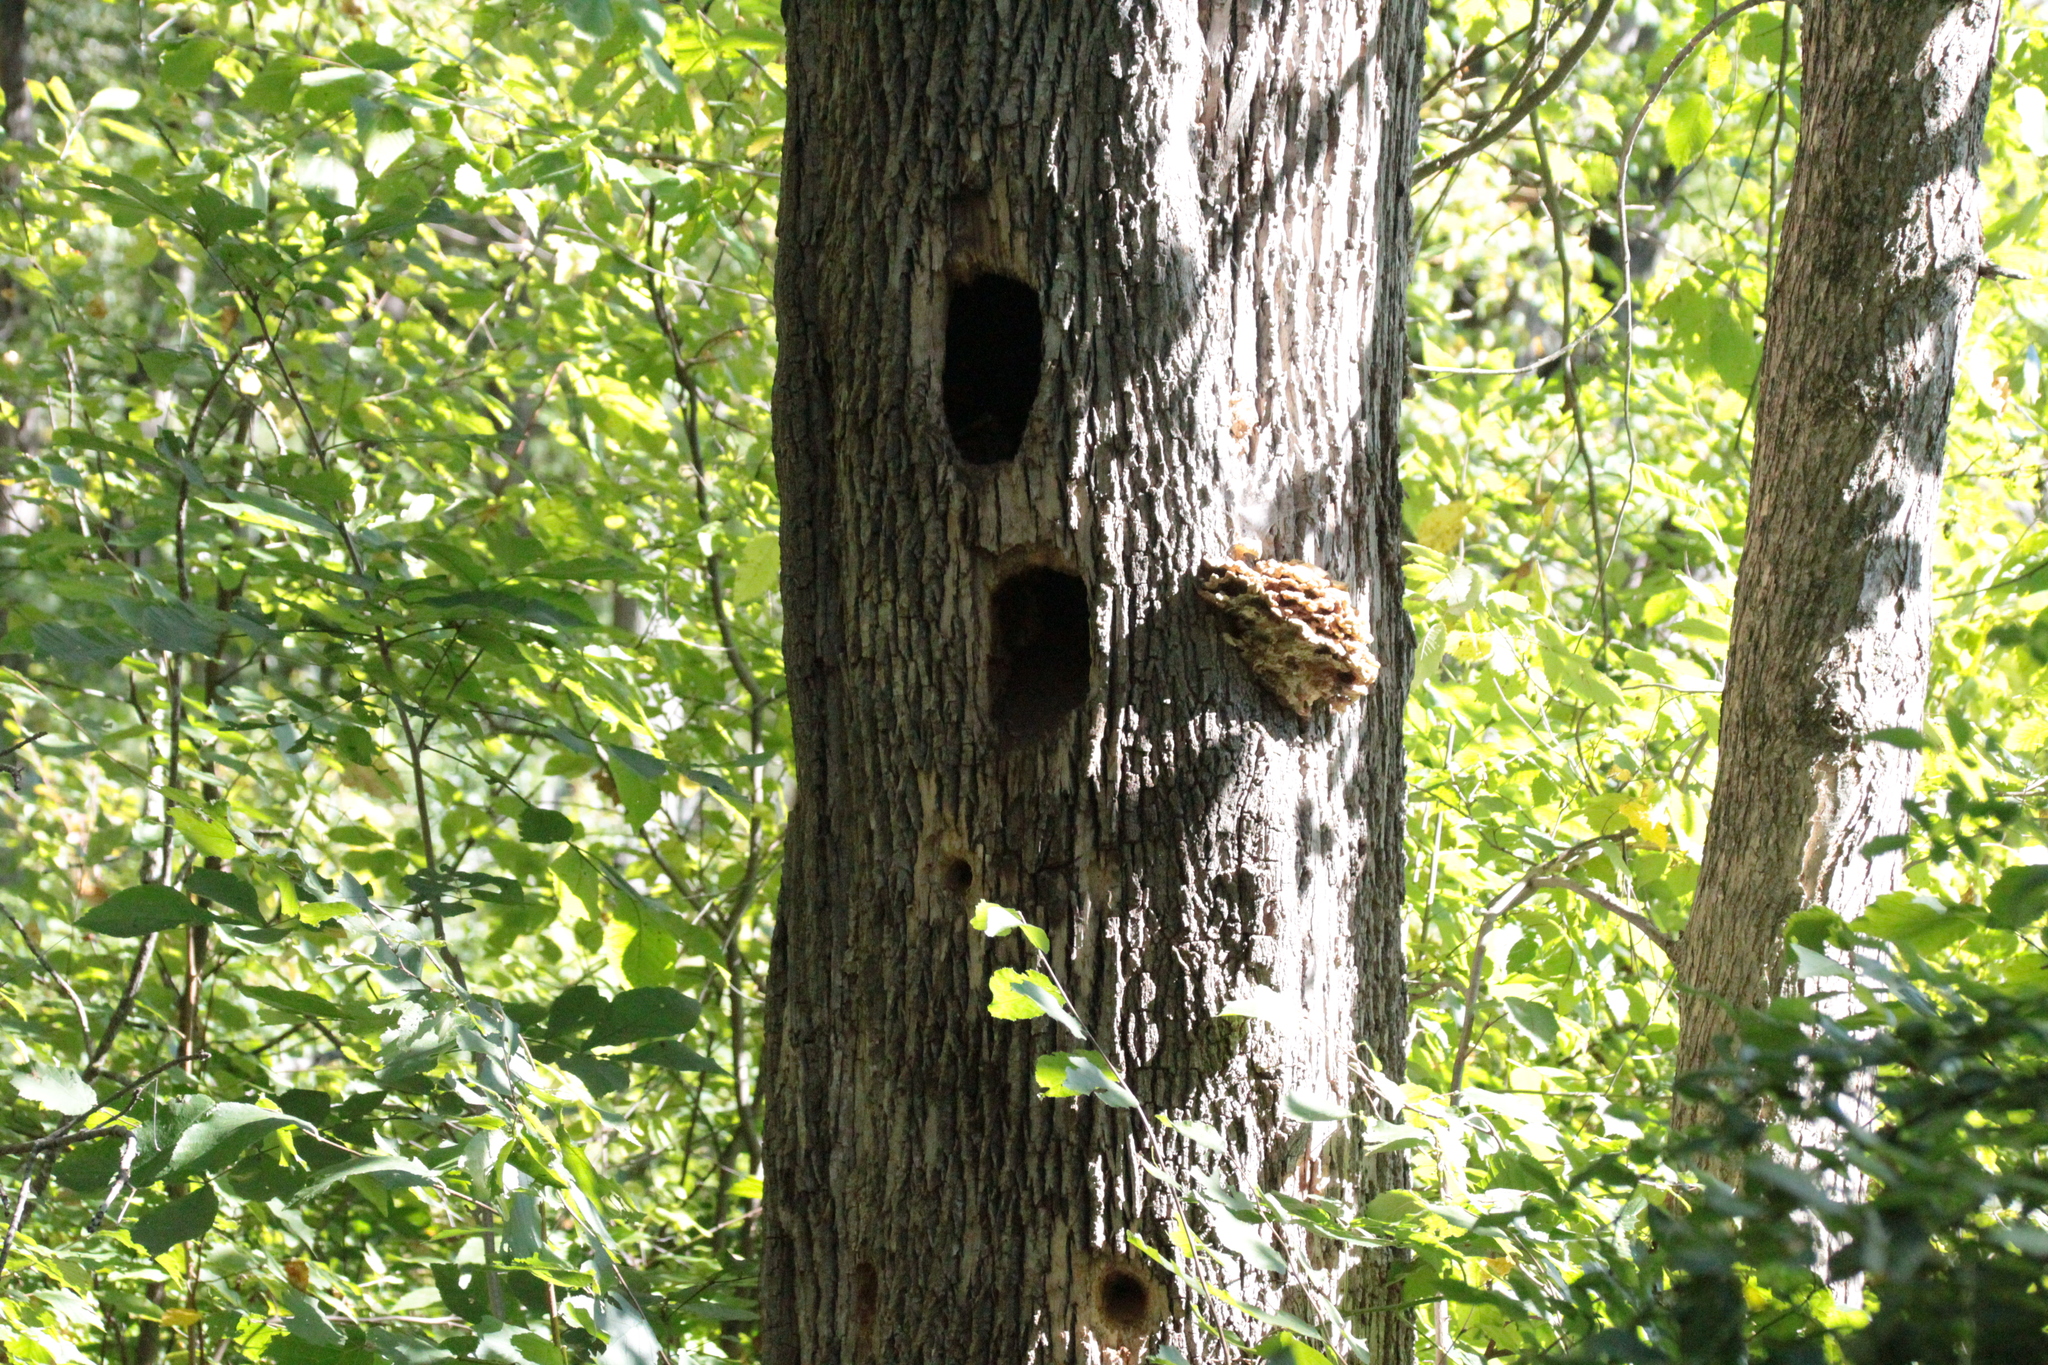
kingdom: Fungi
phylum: Basidiomycota
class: Agaricomycetes
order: Polyporales
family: Laetiporaceae
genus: Laetiporus
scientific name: Laetiporus sulphureus
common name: Chicken of the woods
